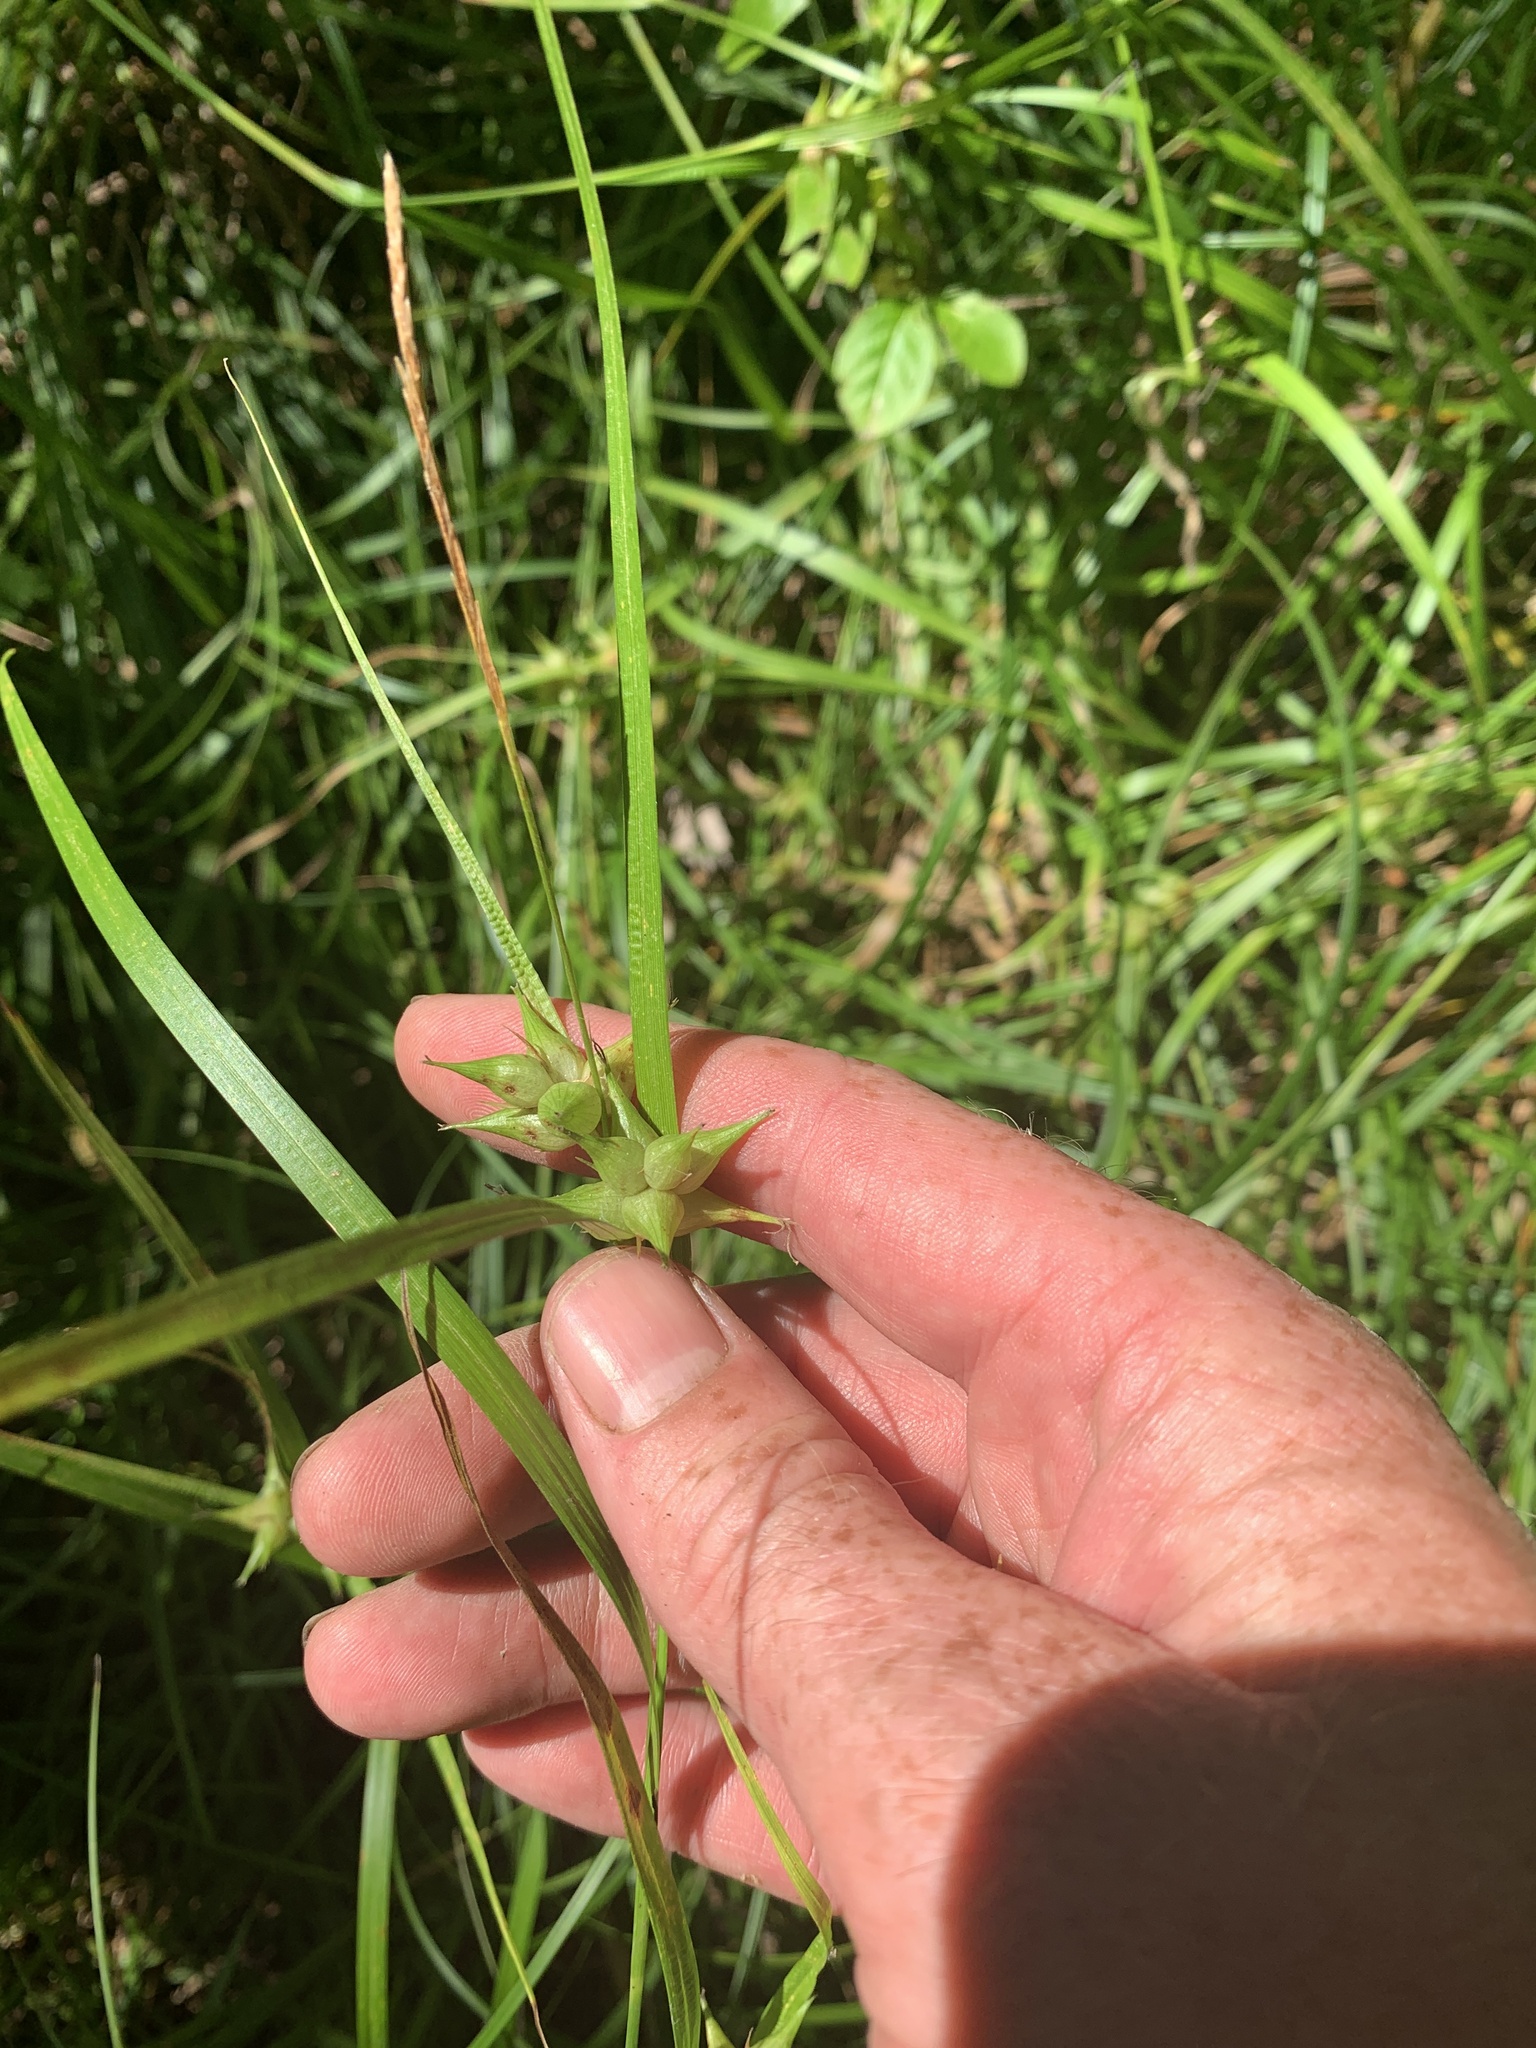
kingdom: Plantae
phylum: Tracheophyta
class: Liliopsida
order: Poales
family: Cyperaceae
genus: Carex
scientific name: Carex intumescens
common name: Greater bladder sedge
